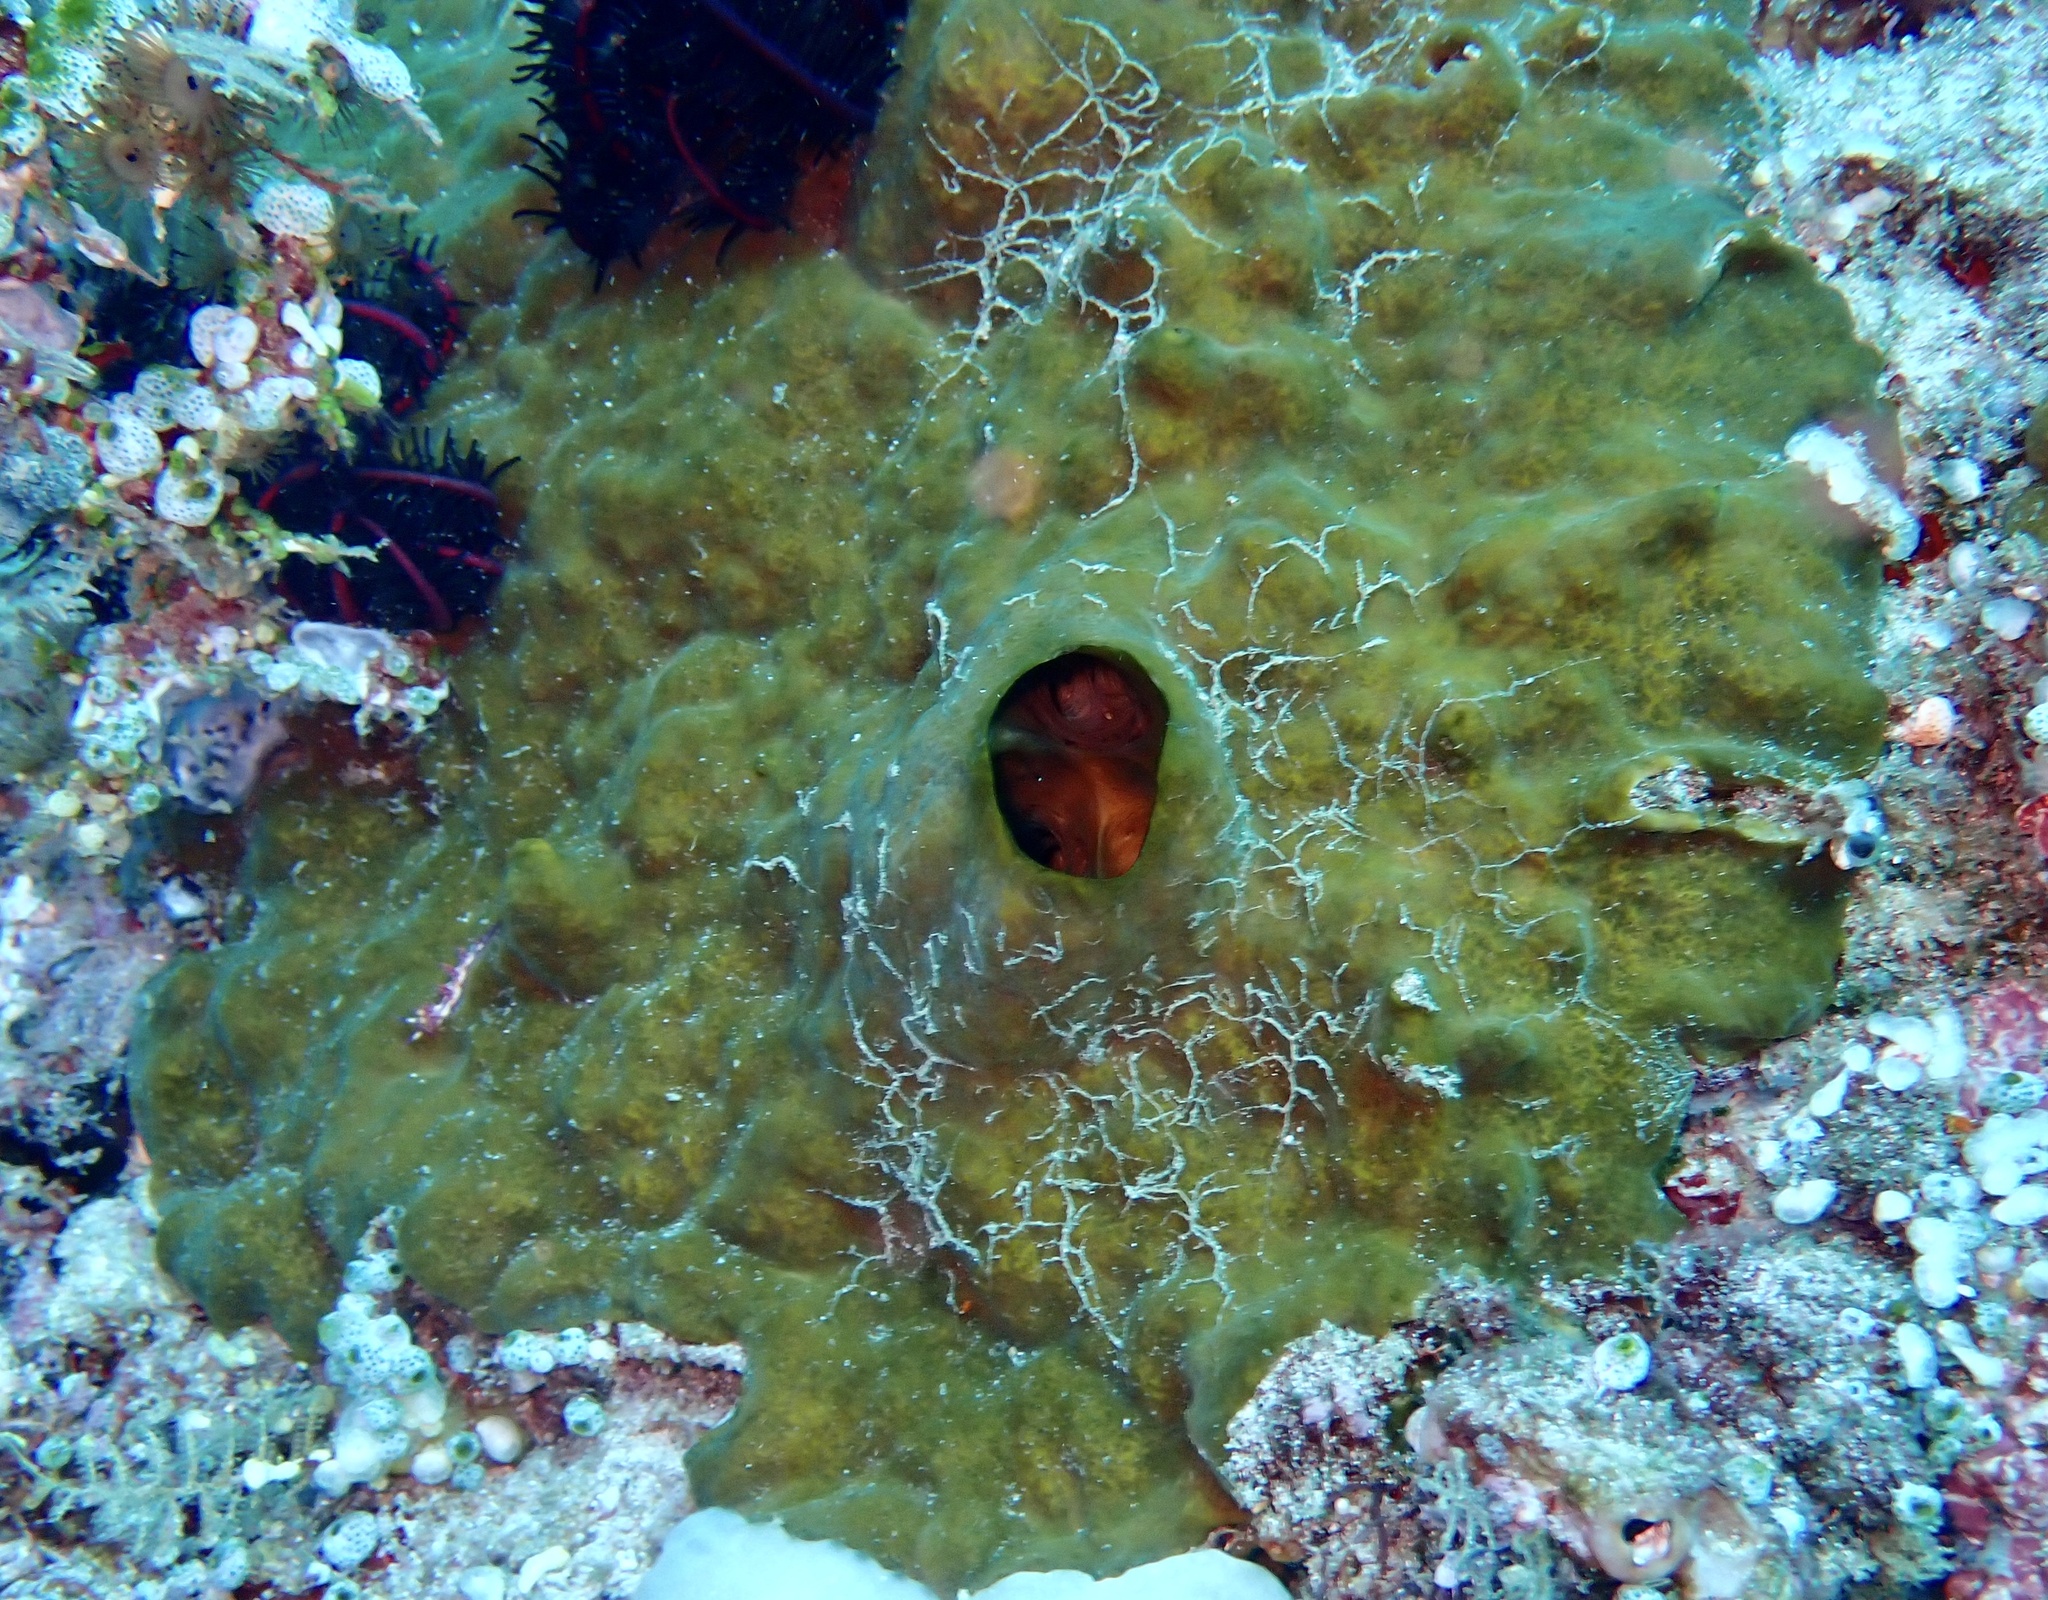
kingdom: Animalia
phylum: Porifera
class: Demospongiae
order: Clionaida
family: Clionaidae
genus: Spheciospongia
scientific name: Spheciospongia vagabunda
